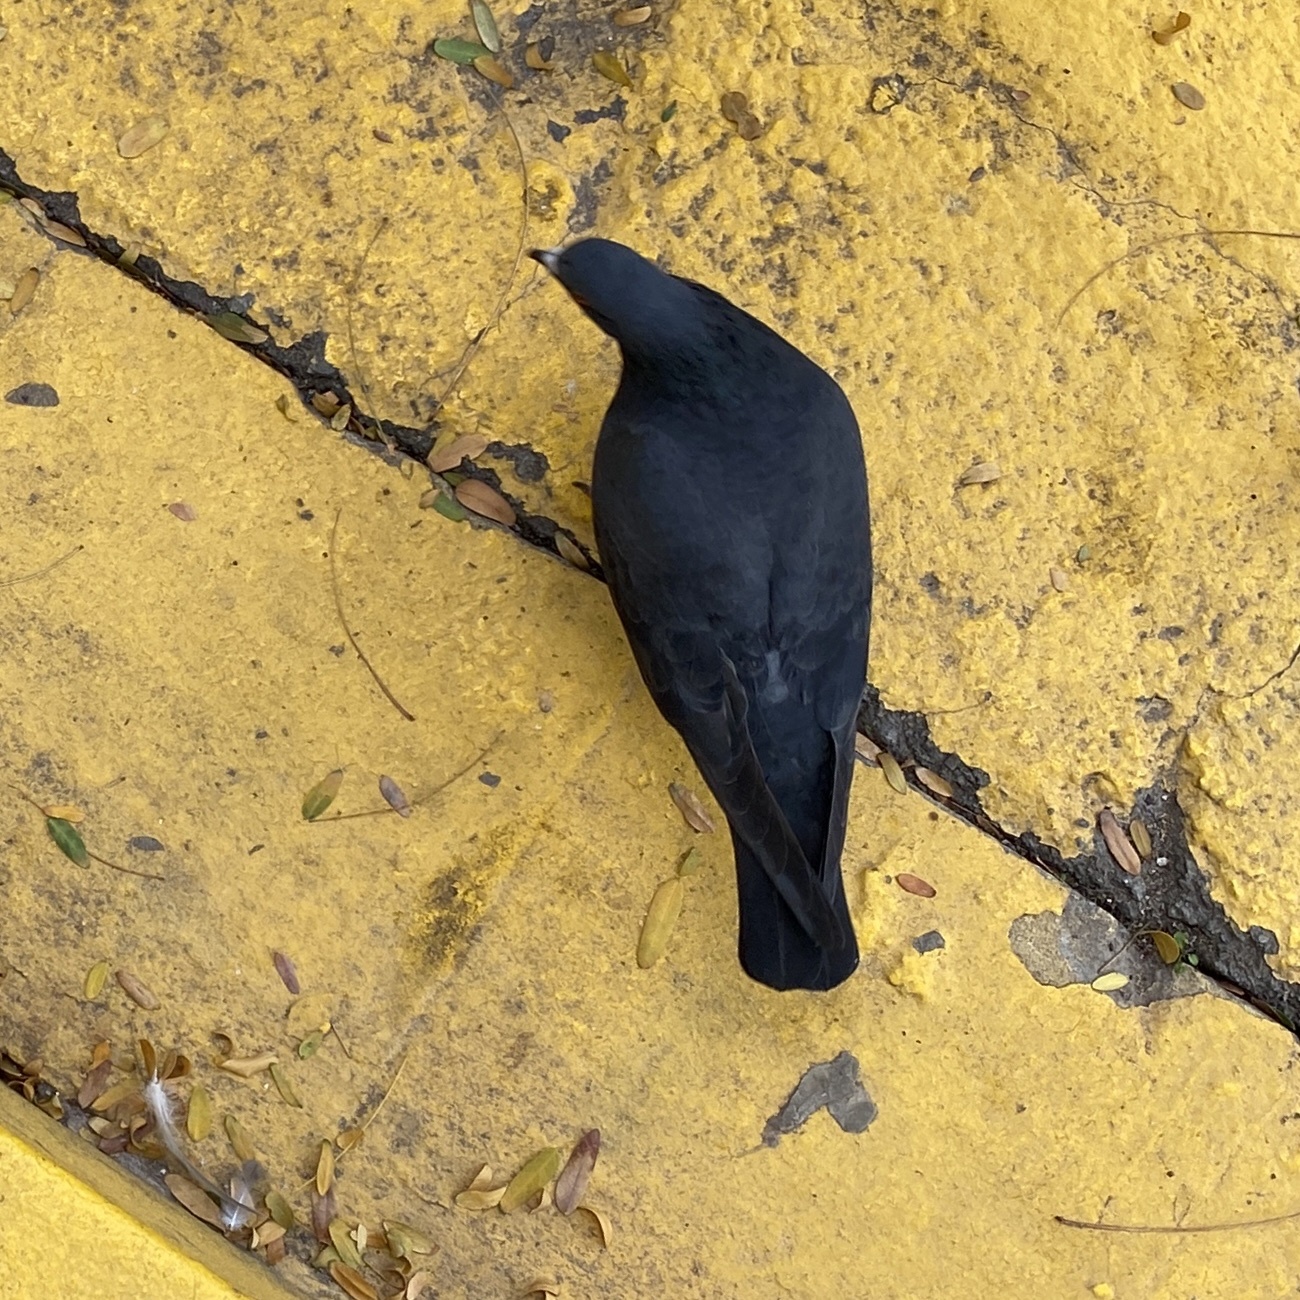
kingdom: Animalia
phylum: Chordata
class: Aves
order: Columbiformes
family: Columbidae
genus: Columba
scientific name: Columba livia
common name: Rock pigeon
